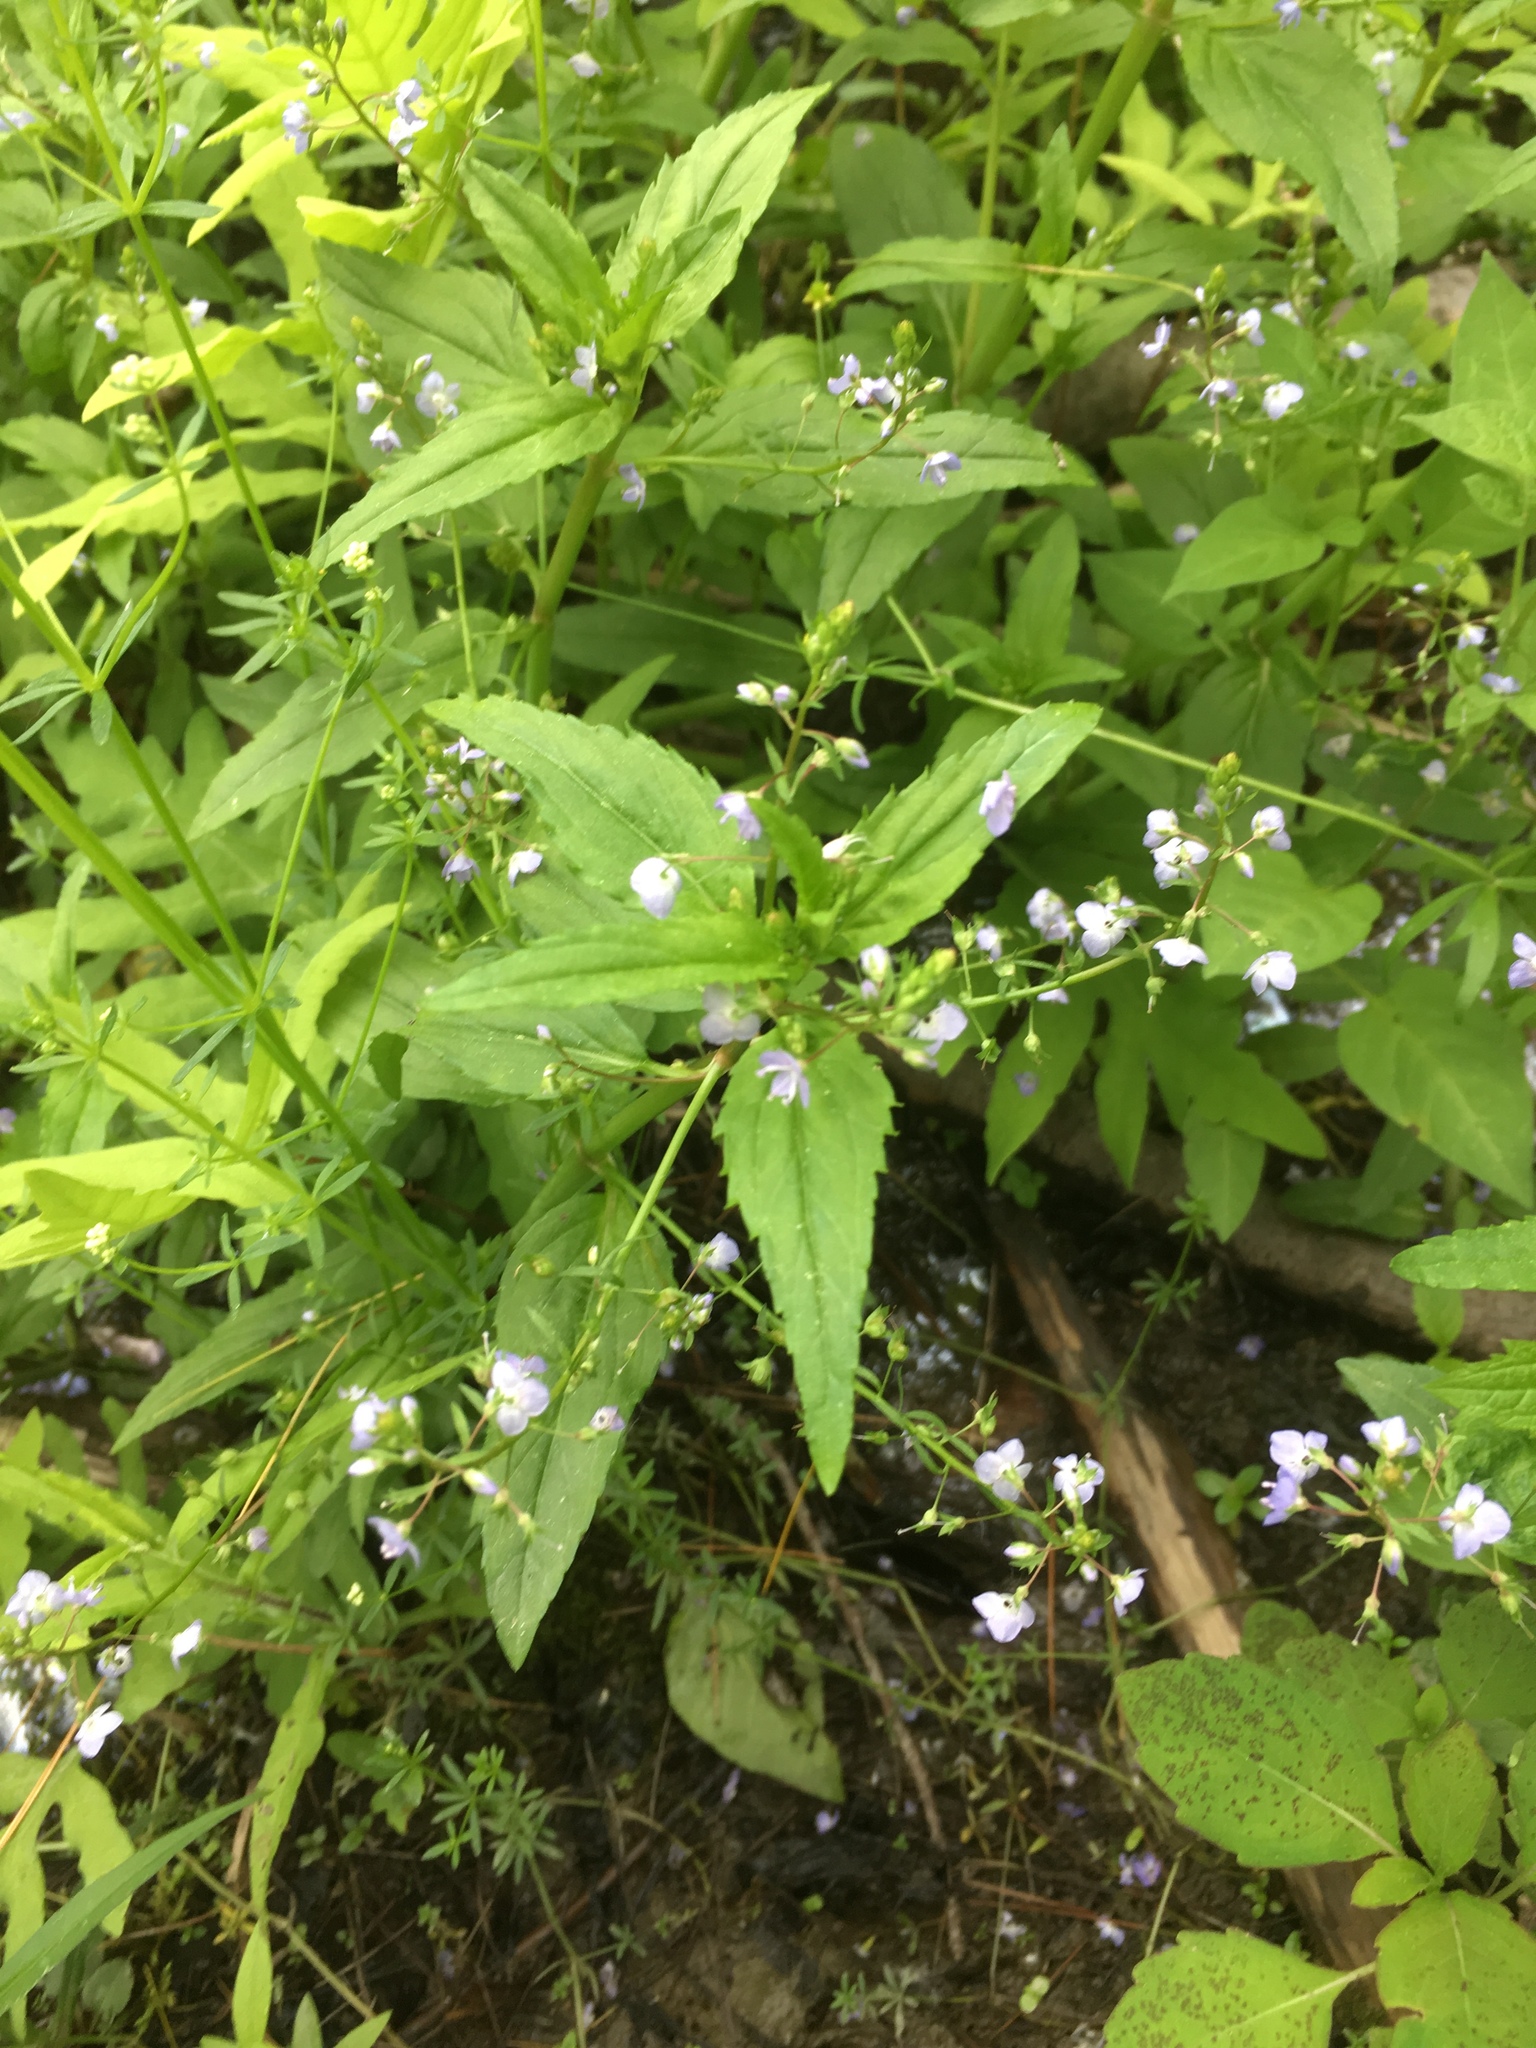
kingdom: Plantae
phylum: Tracheophyta
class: Magnoliopsida
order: Lamiales
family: Plantaginaceae
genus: Veronica
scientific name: Veronica americana
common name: American brooklime
